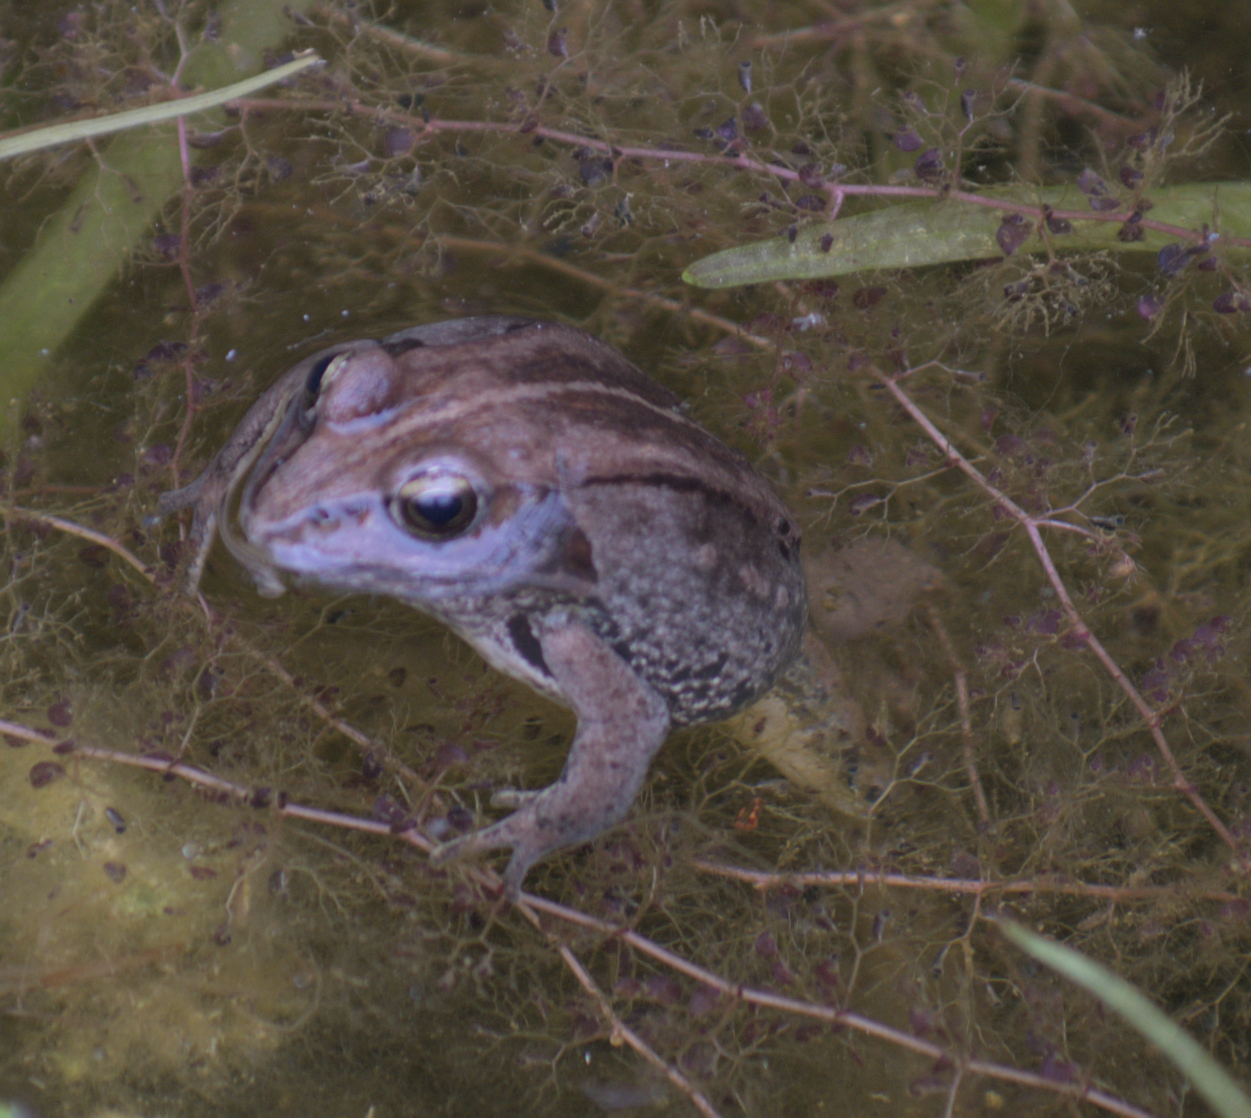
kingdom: Animalia
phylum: Chordata
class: Amphibia
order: Anura
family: Ranidae
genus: Lithobates
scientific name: Lithobates sylvaticus
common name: Wood frog
